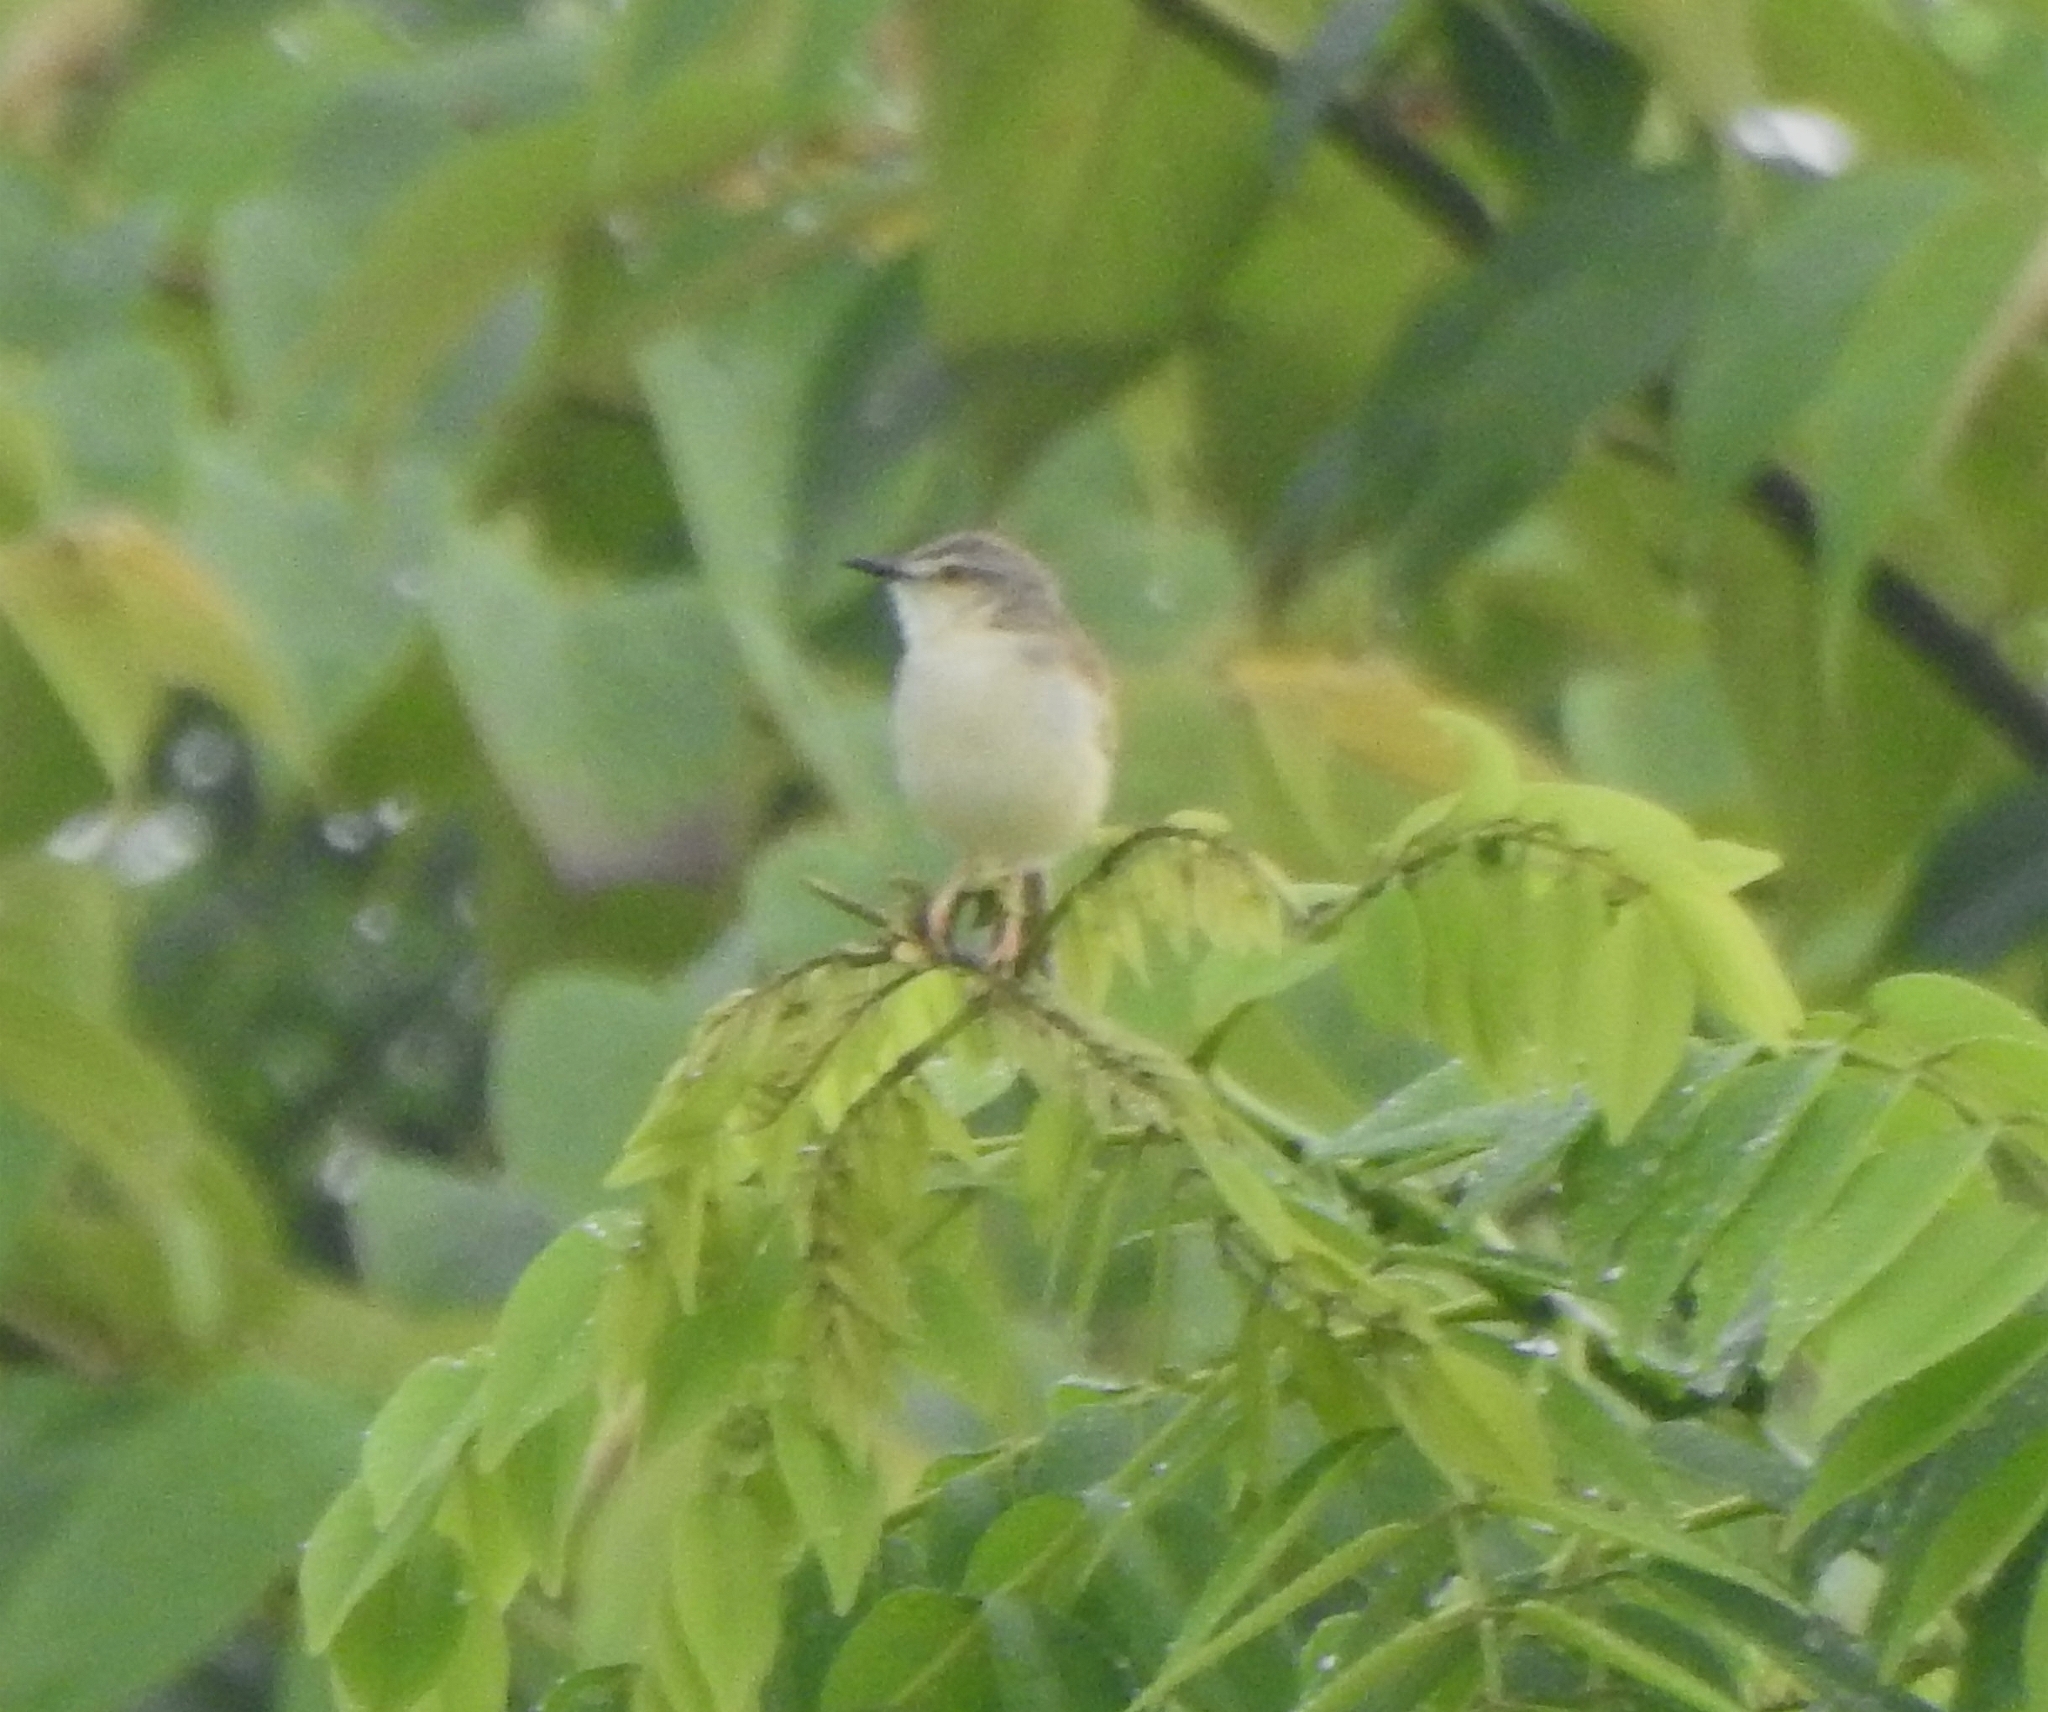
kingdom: Animalia
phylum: Chordata
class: Aves
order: Passeriformes
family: Cisticolidae
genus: Prinia
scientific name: Prinia inornata
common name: Plain prinia
